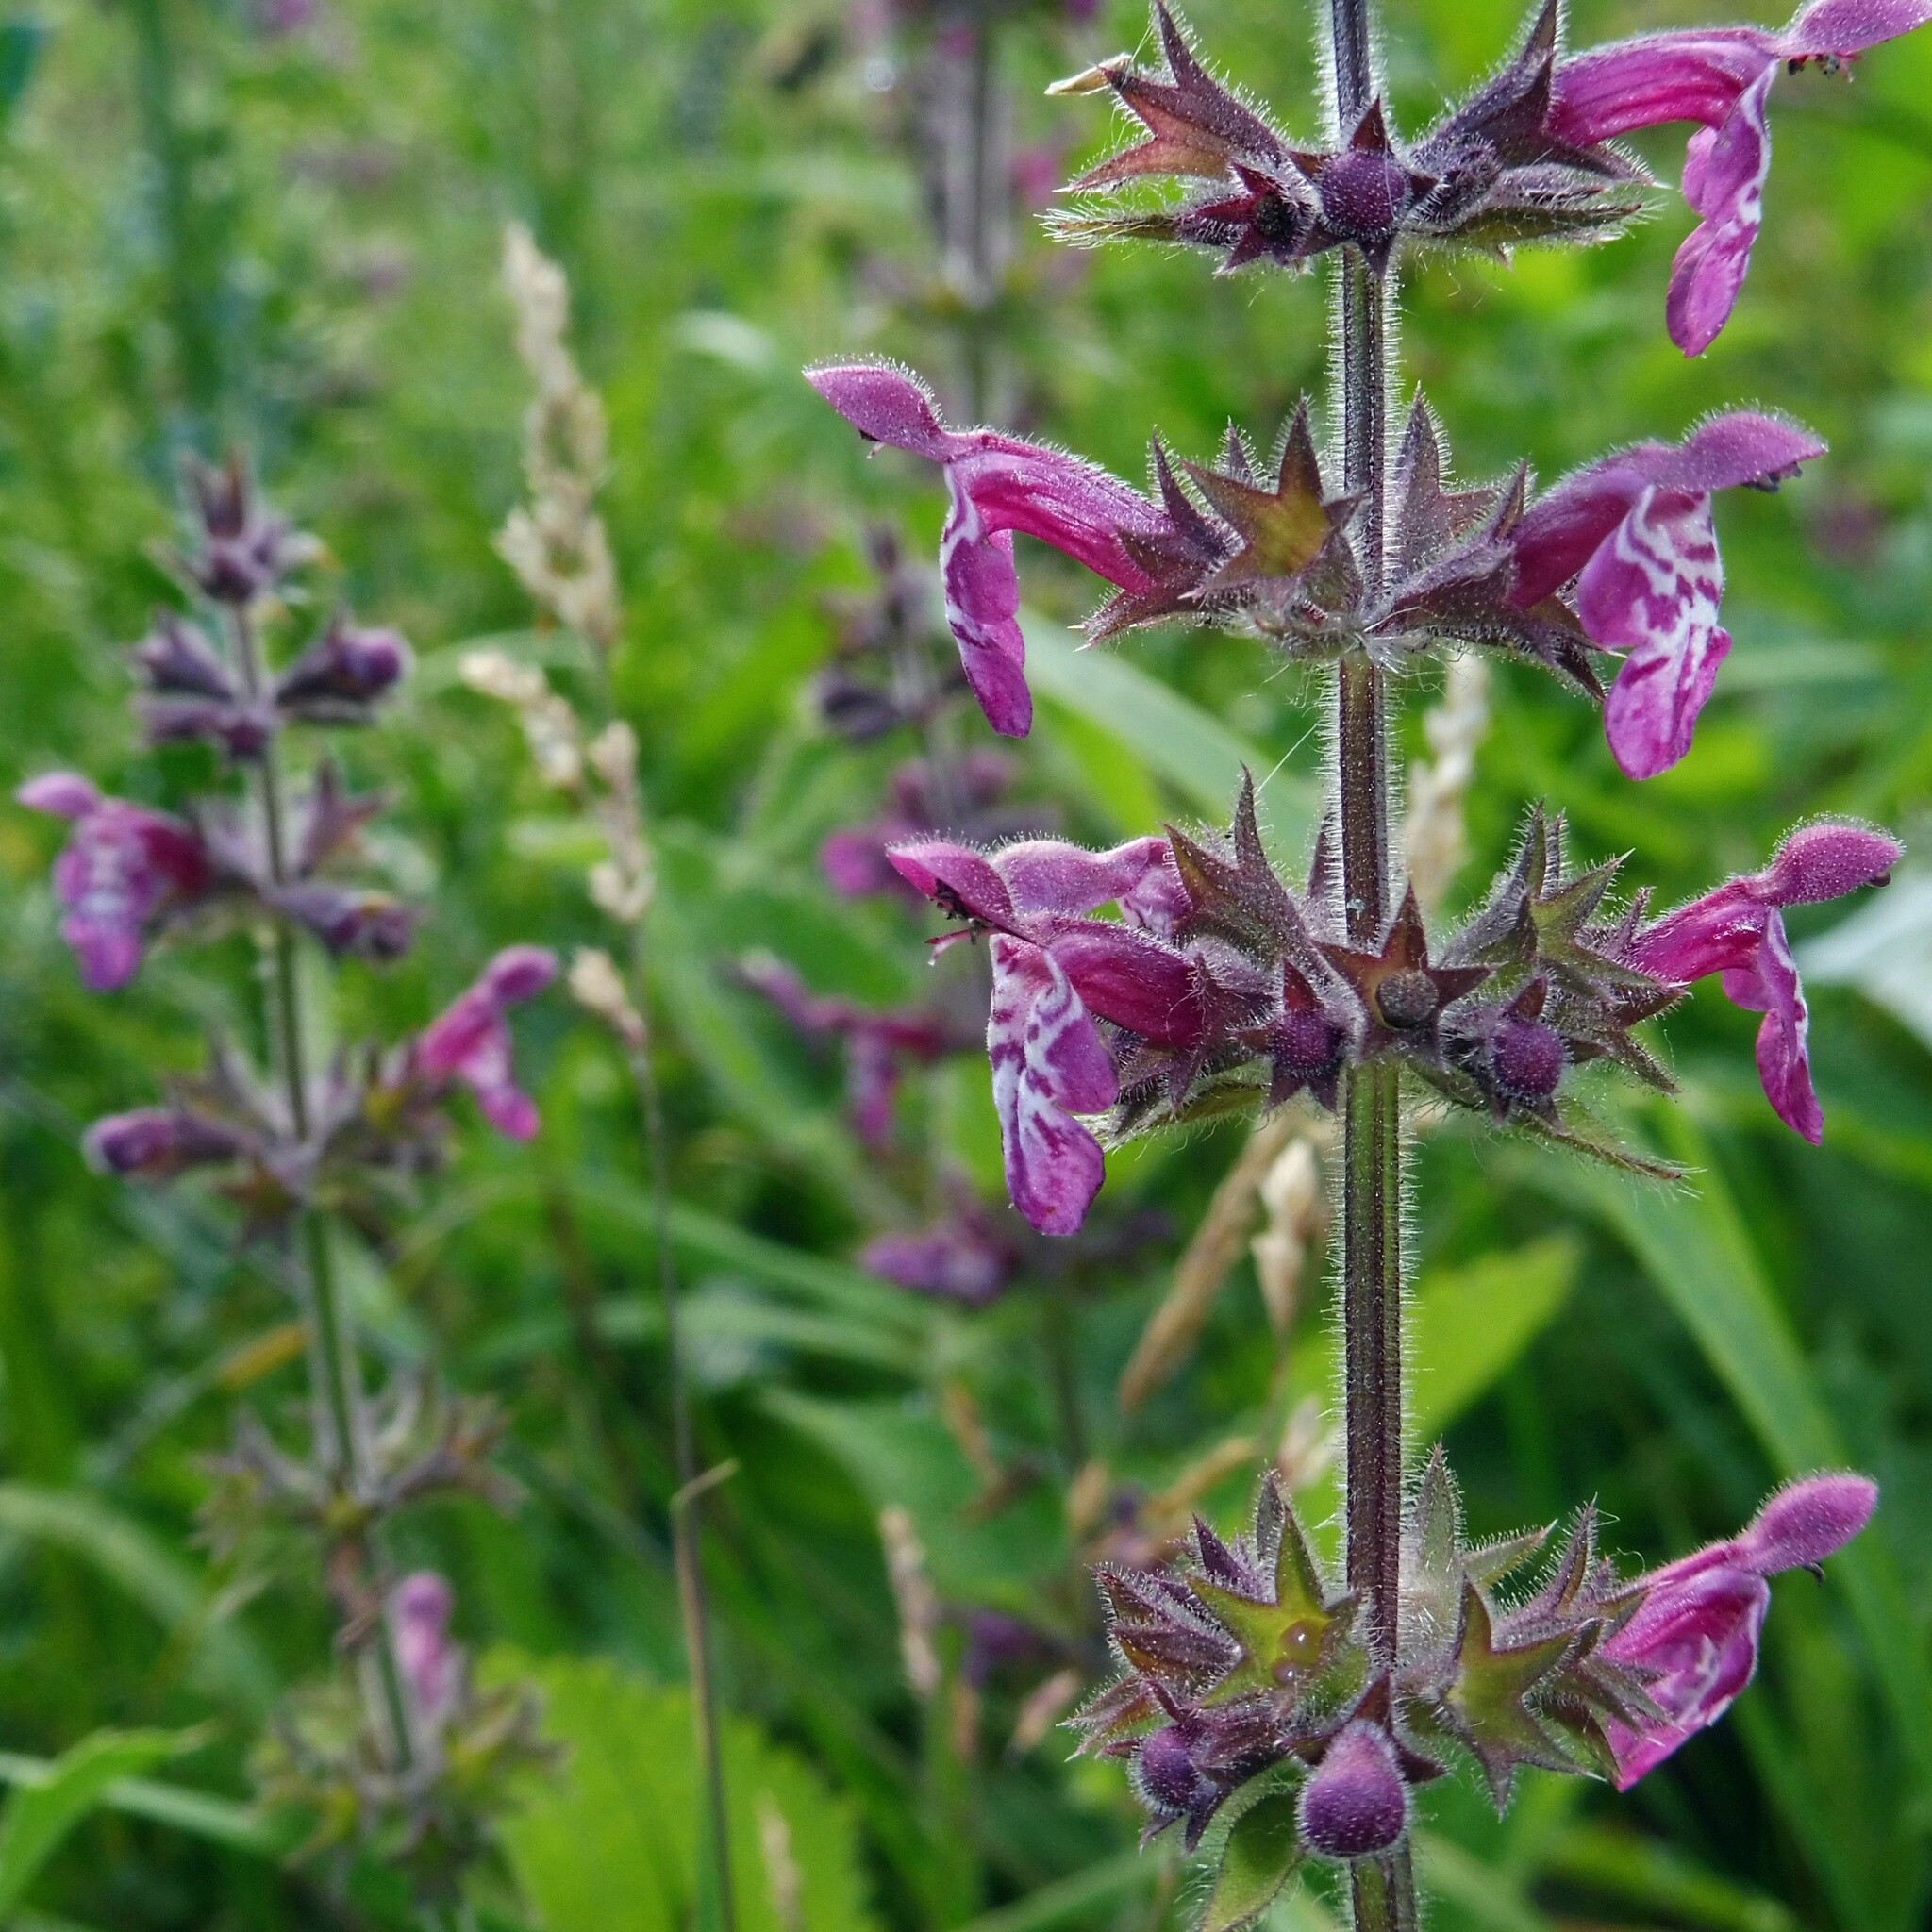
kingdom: Plantae
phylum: Tracheophyta
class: Magnoliopsida
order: Lamiales
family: Lamiaceae
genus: Stachys
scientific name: Stachys sylvatica
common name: Hedge woundwort
